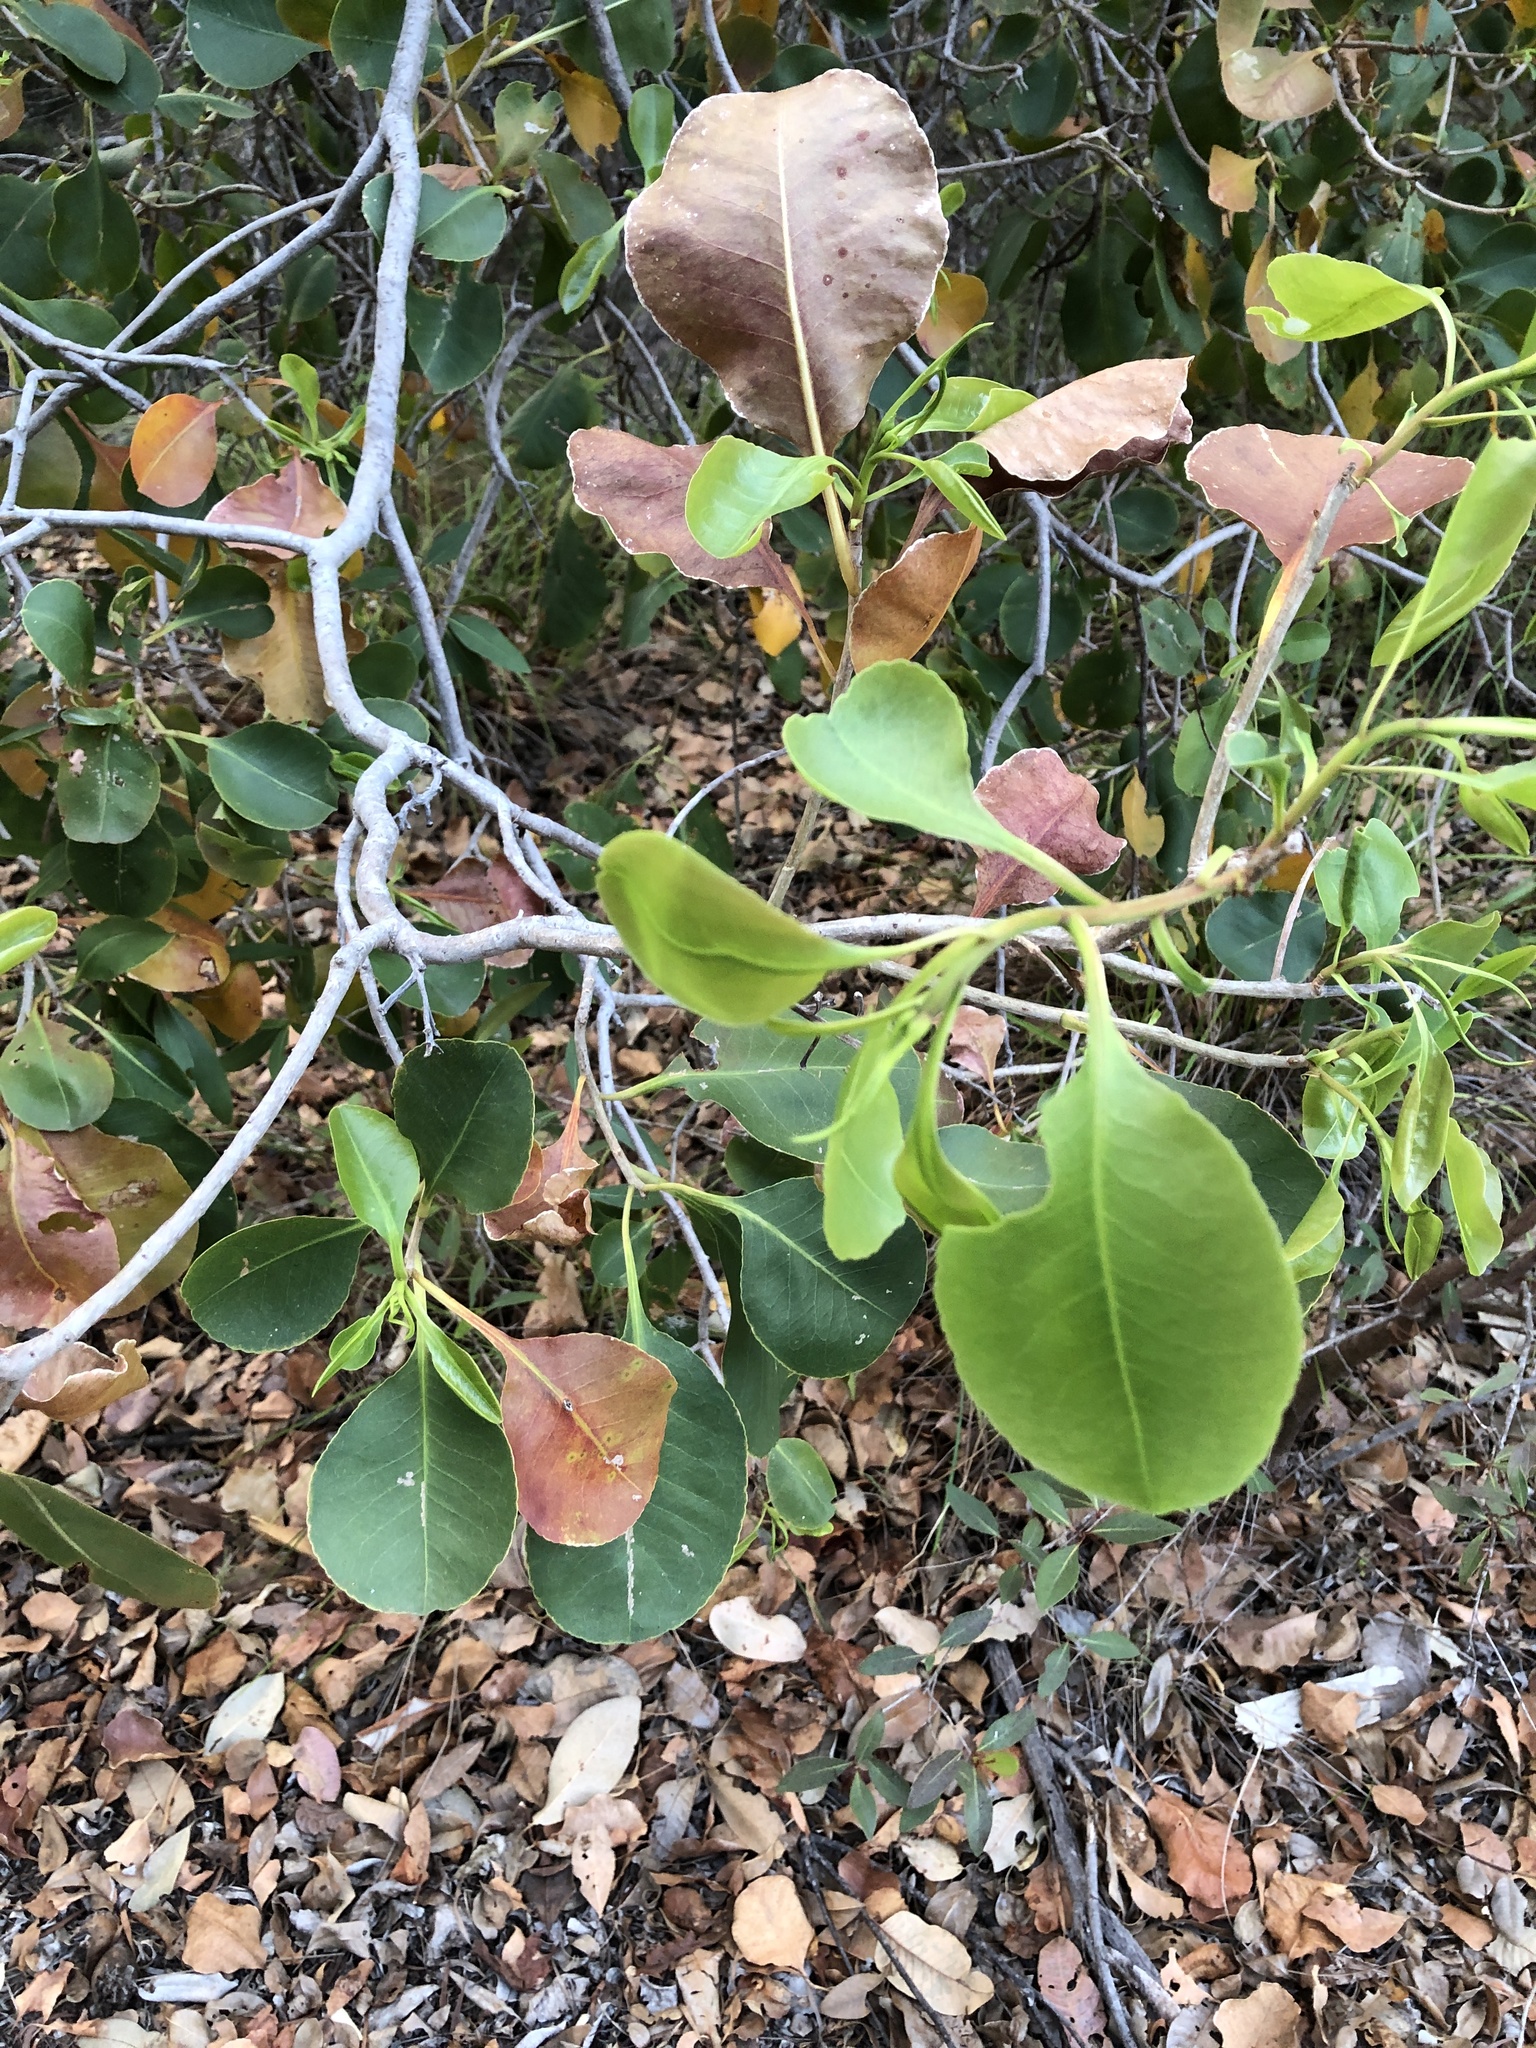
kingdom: Plantae
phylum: Tracheophyta
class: Magnoliopsida
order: Ericales
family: Lecythidaceae
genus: Planchonia
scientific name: Planchonia careya
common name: Cockatoo-apple
